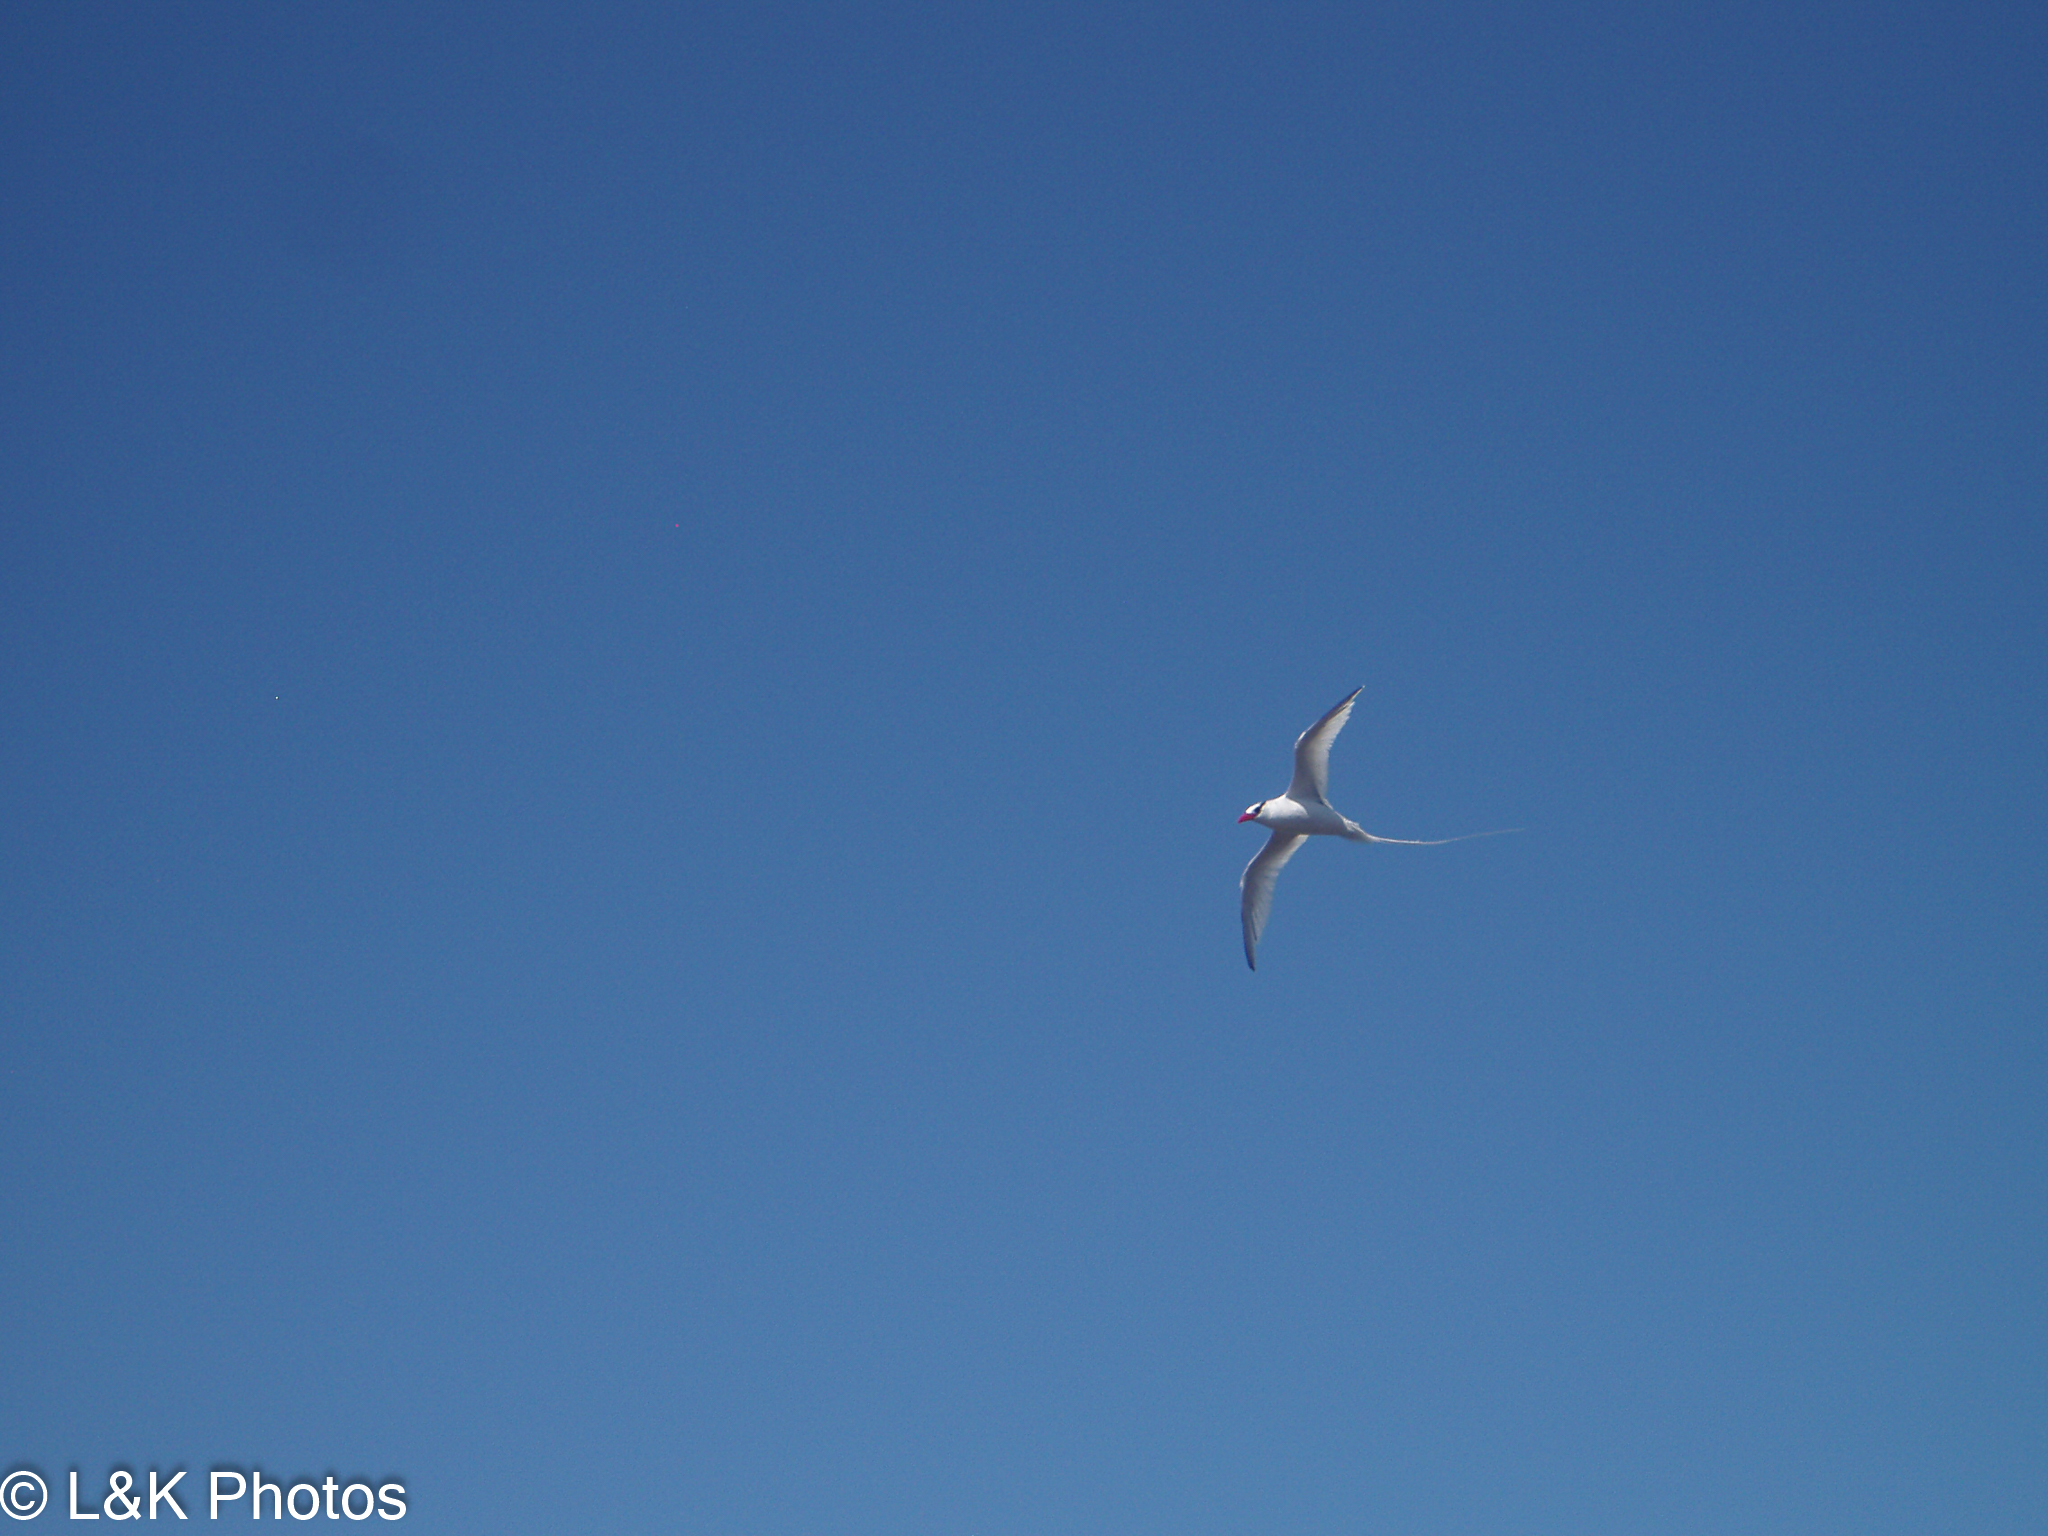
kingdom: Animalia
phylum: Chordata
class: Aves
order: Phaethontiformes
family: Phaethontidae
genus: Phaethon
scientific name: Phaethon aethereus
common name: Red-billed tropicbird
